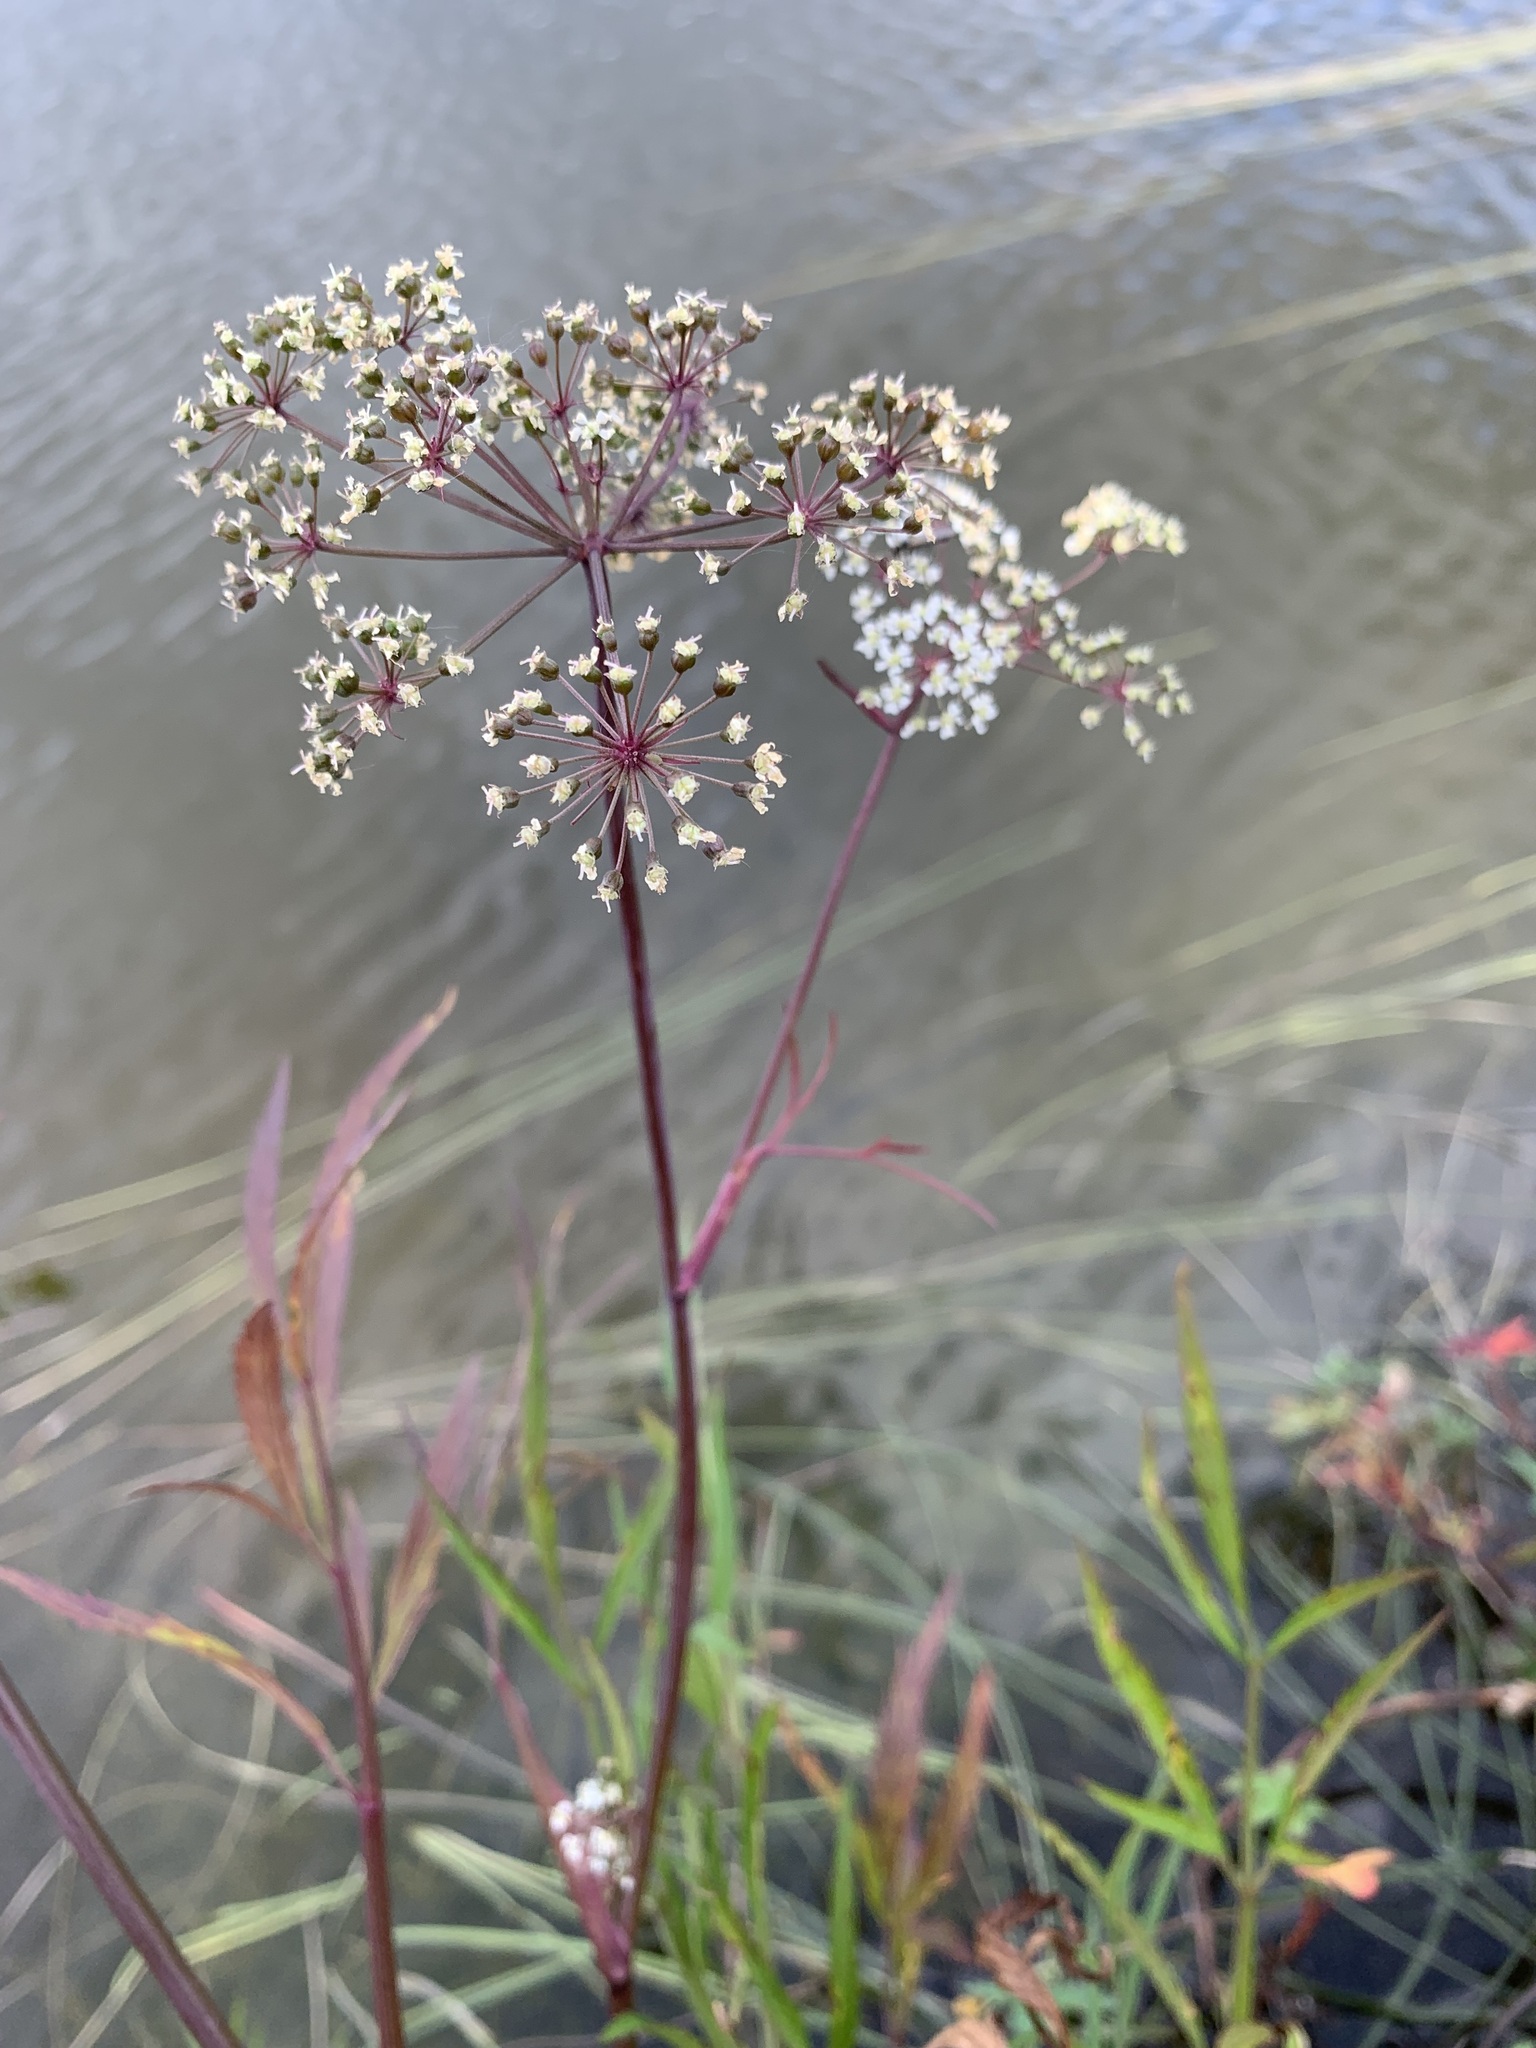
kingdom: Plantae
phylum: Tracheophyta
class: Magnoliopsida
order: Apiales
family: Apiaceae
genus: Cicuta
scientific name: Cicuta virosa
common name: Cowbane
